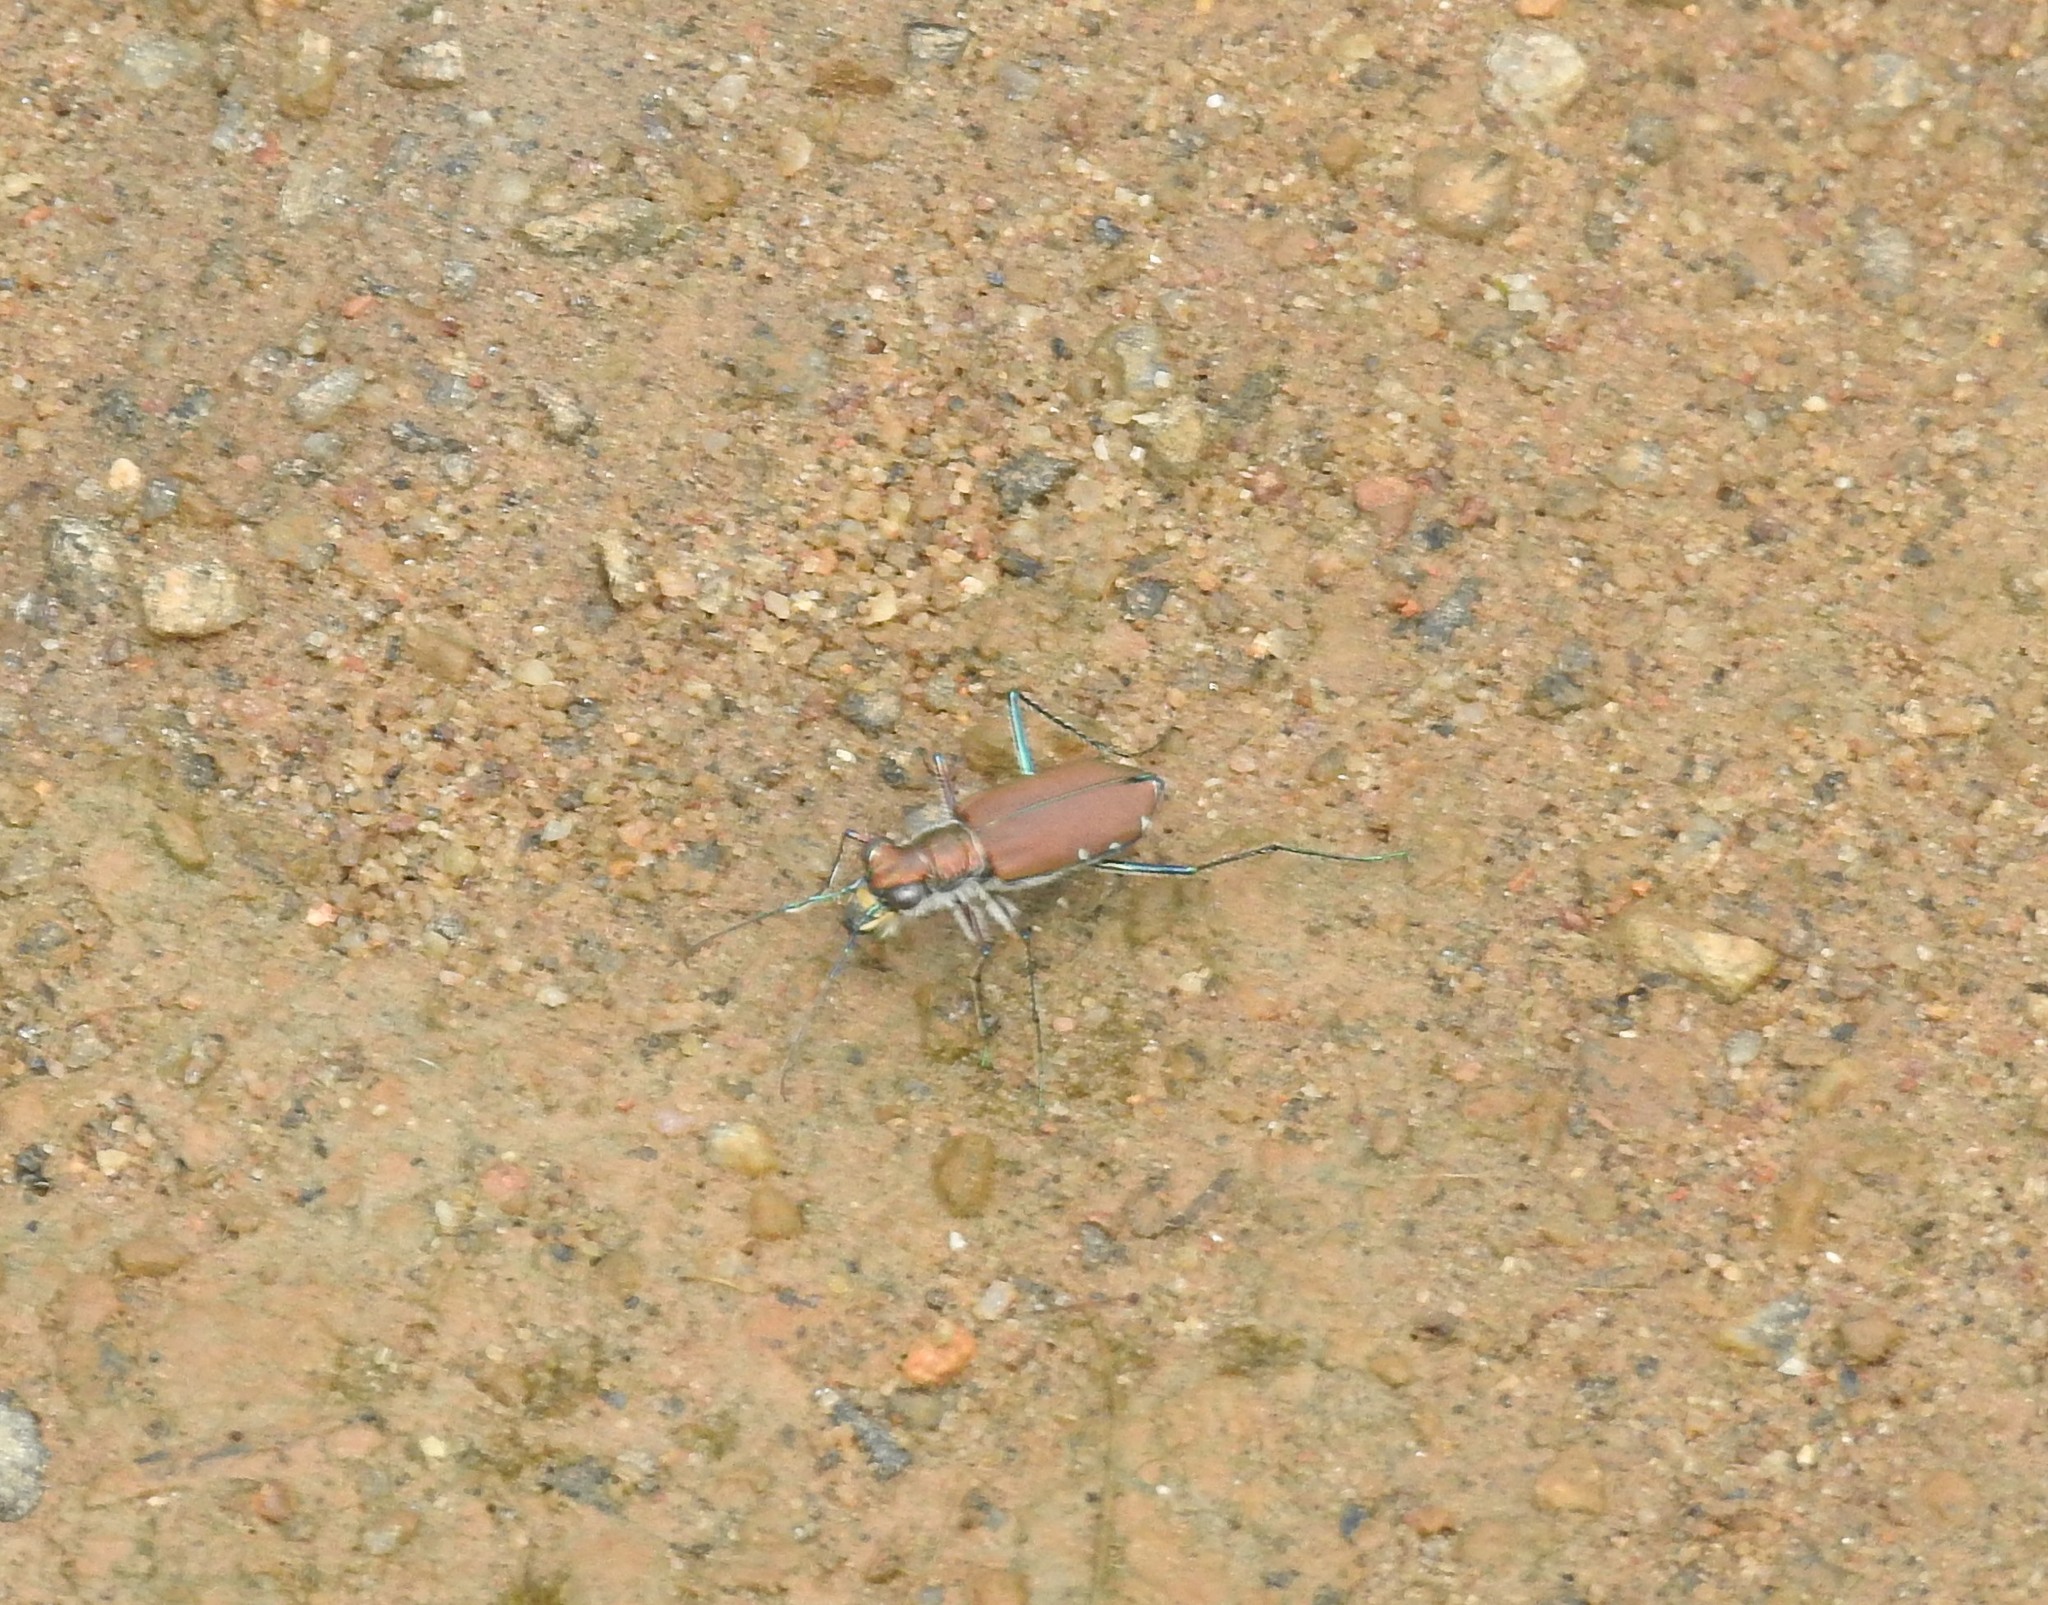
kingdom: Animalia
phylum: Arthropoda
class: Insecta
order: Coleoptera
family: Carabidae
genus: Cicindela
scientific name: Cicindela funerea
